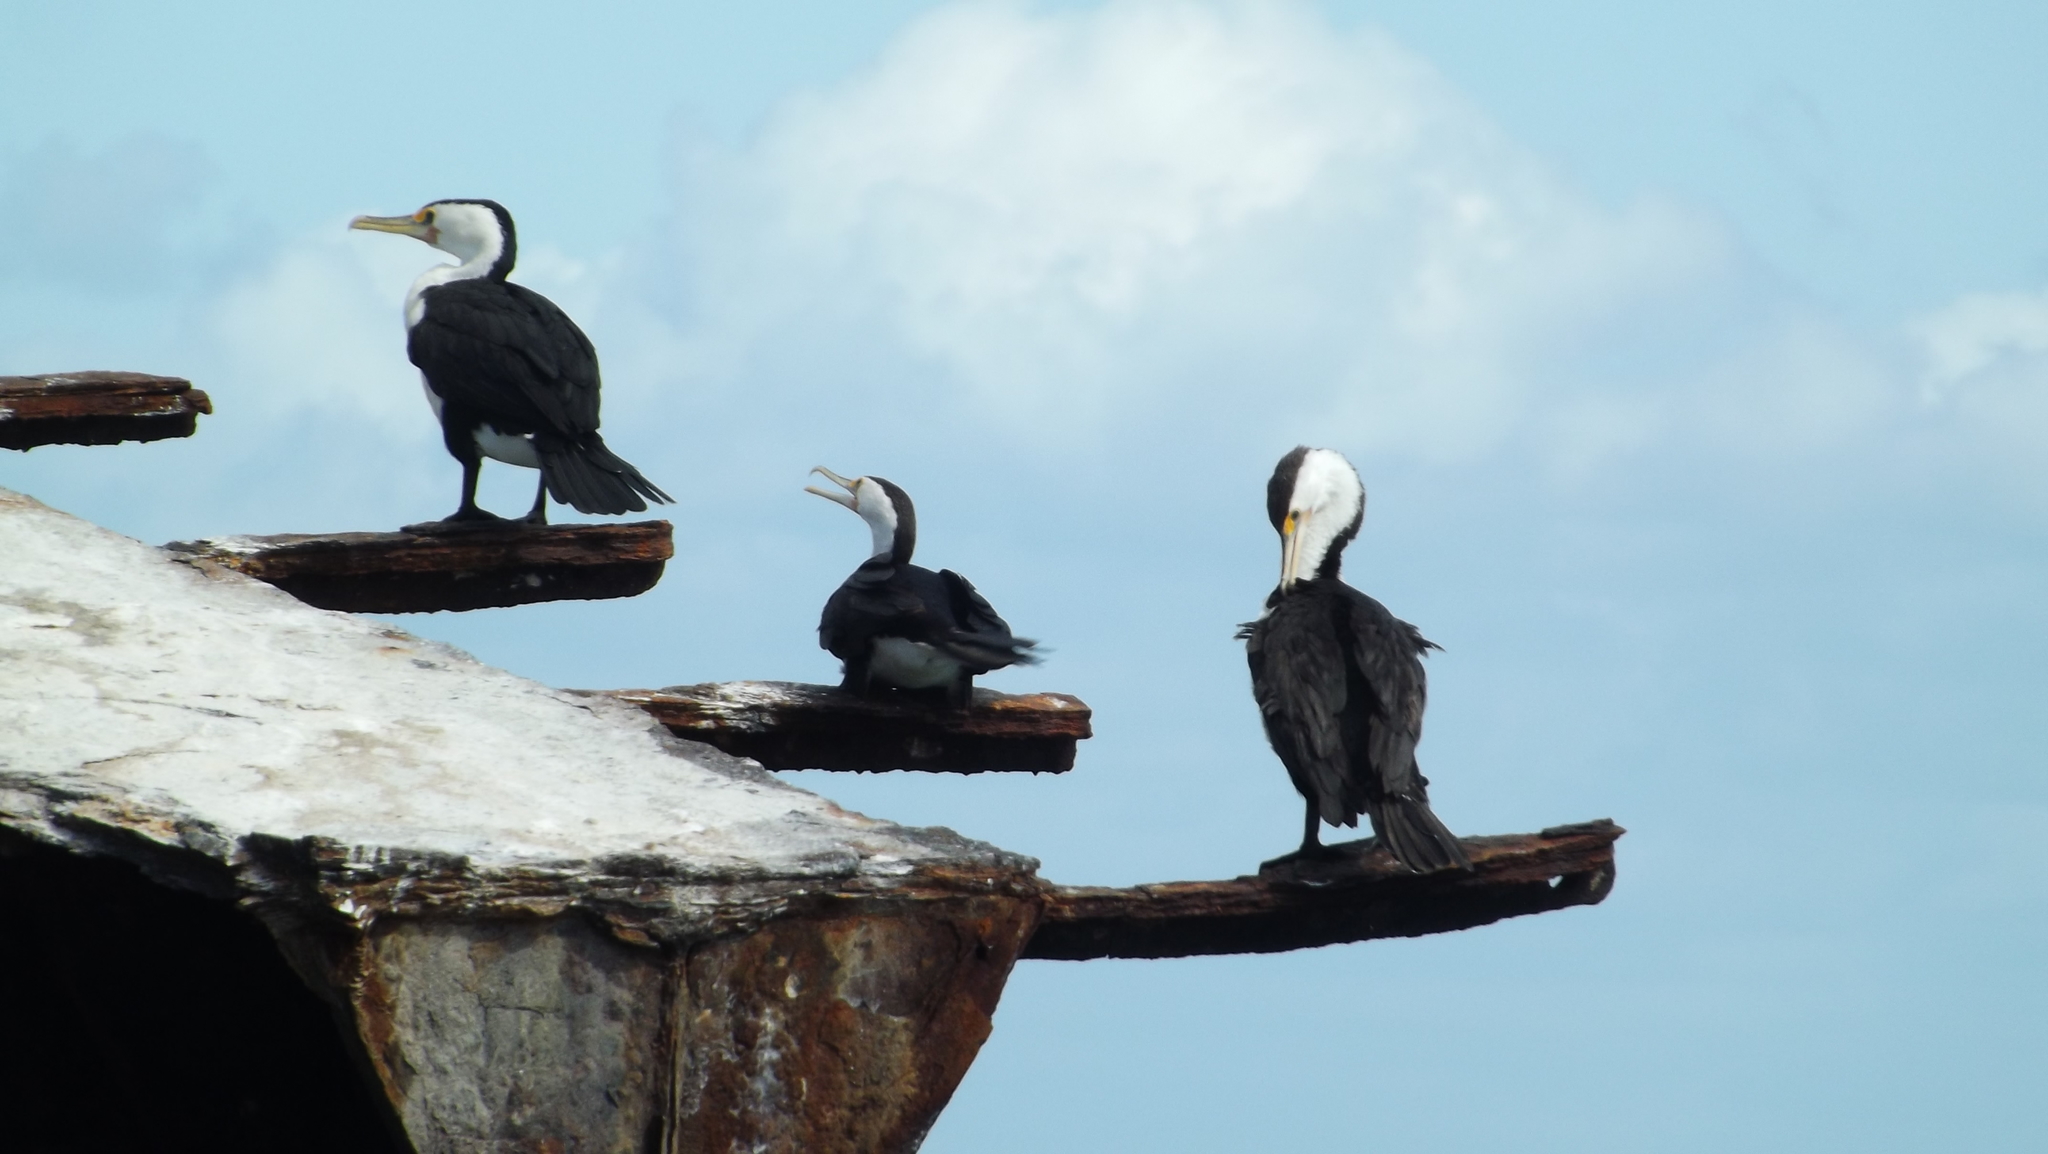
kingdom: Animalia
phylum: Chordata
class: Aves
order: Suliformes
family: Phalacrocoracidae
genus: Phalacrocorax
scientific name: Phalacrocorax varius
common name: Pied cormorant
